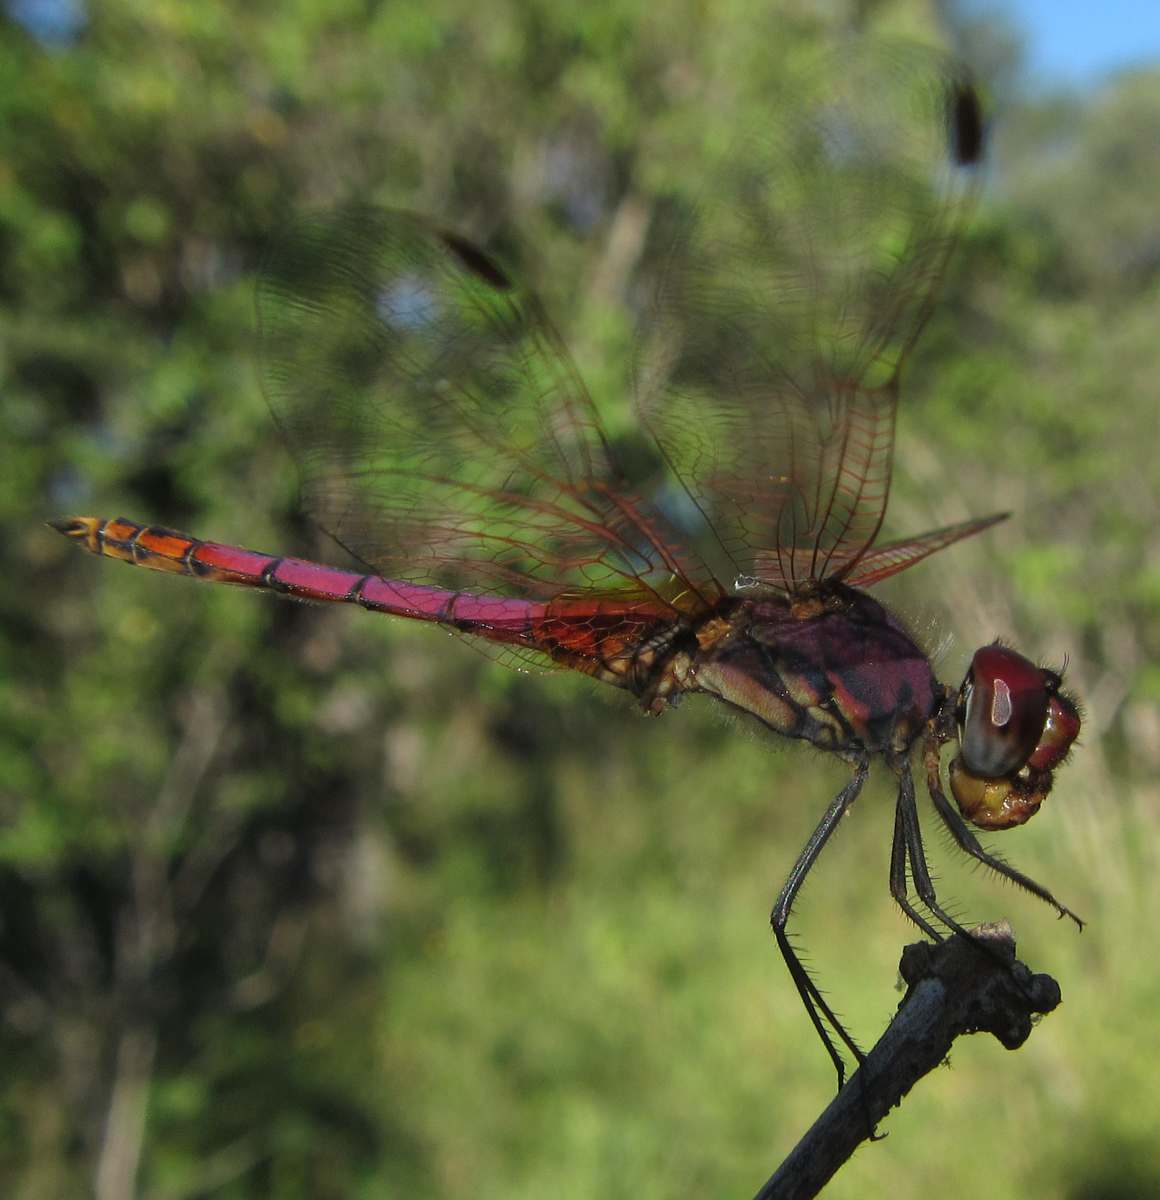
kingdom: Animalia
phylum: Arthropoda
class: Insecta
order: Odonata
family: Libellulidae
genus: Trithemis
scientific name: Trithemis annulata
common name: Violet dropwing
